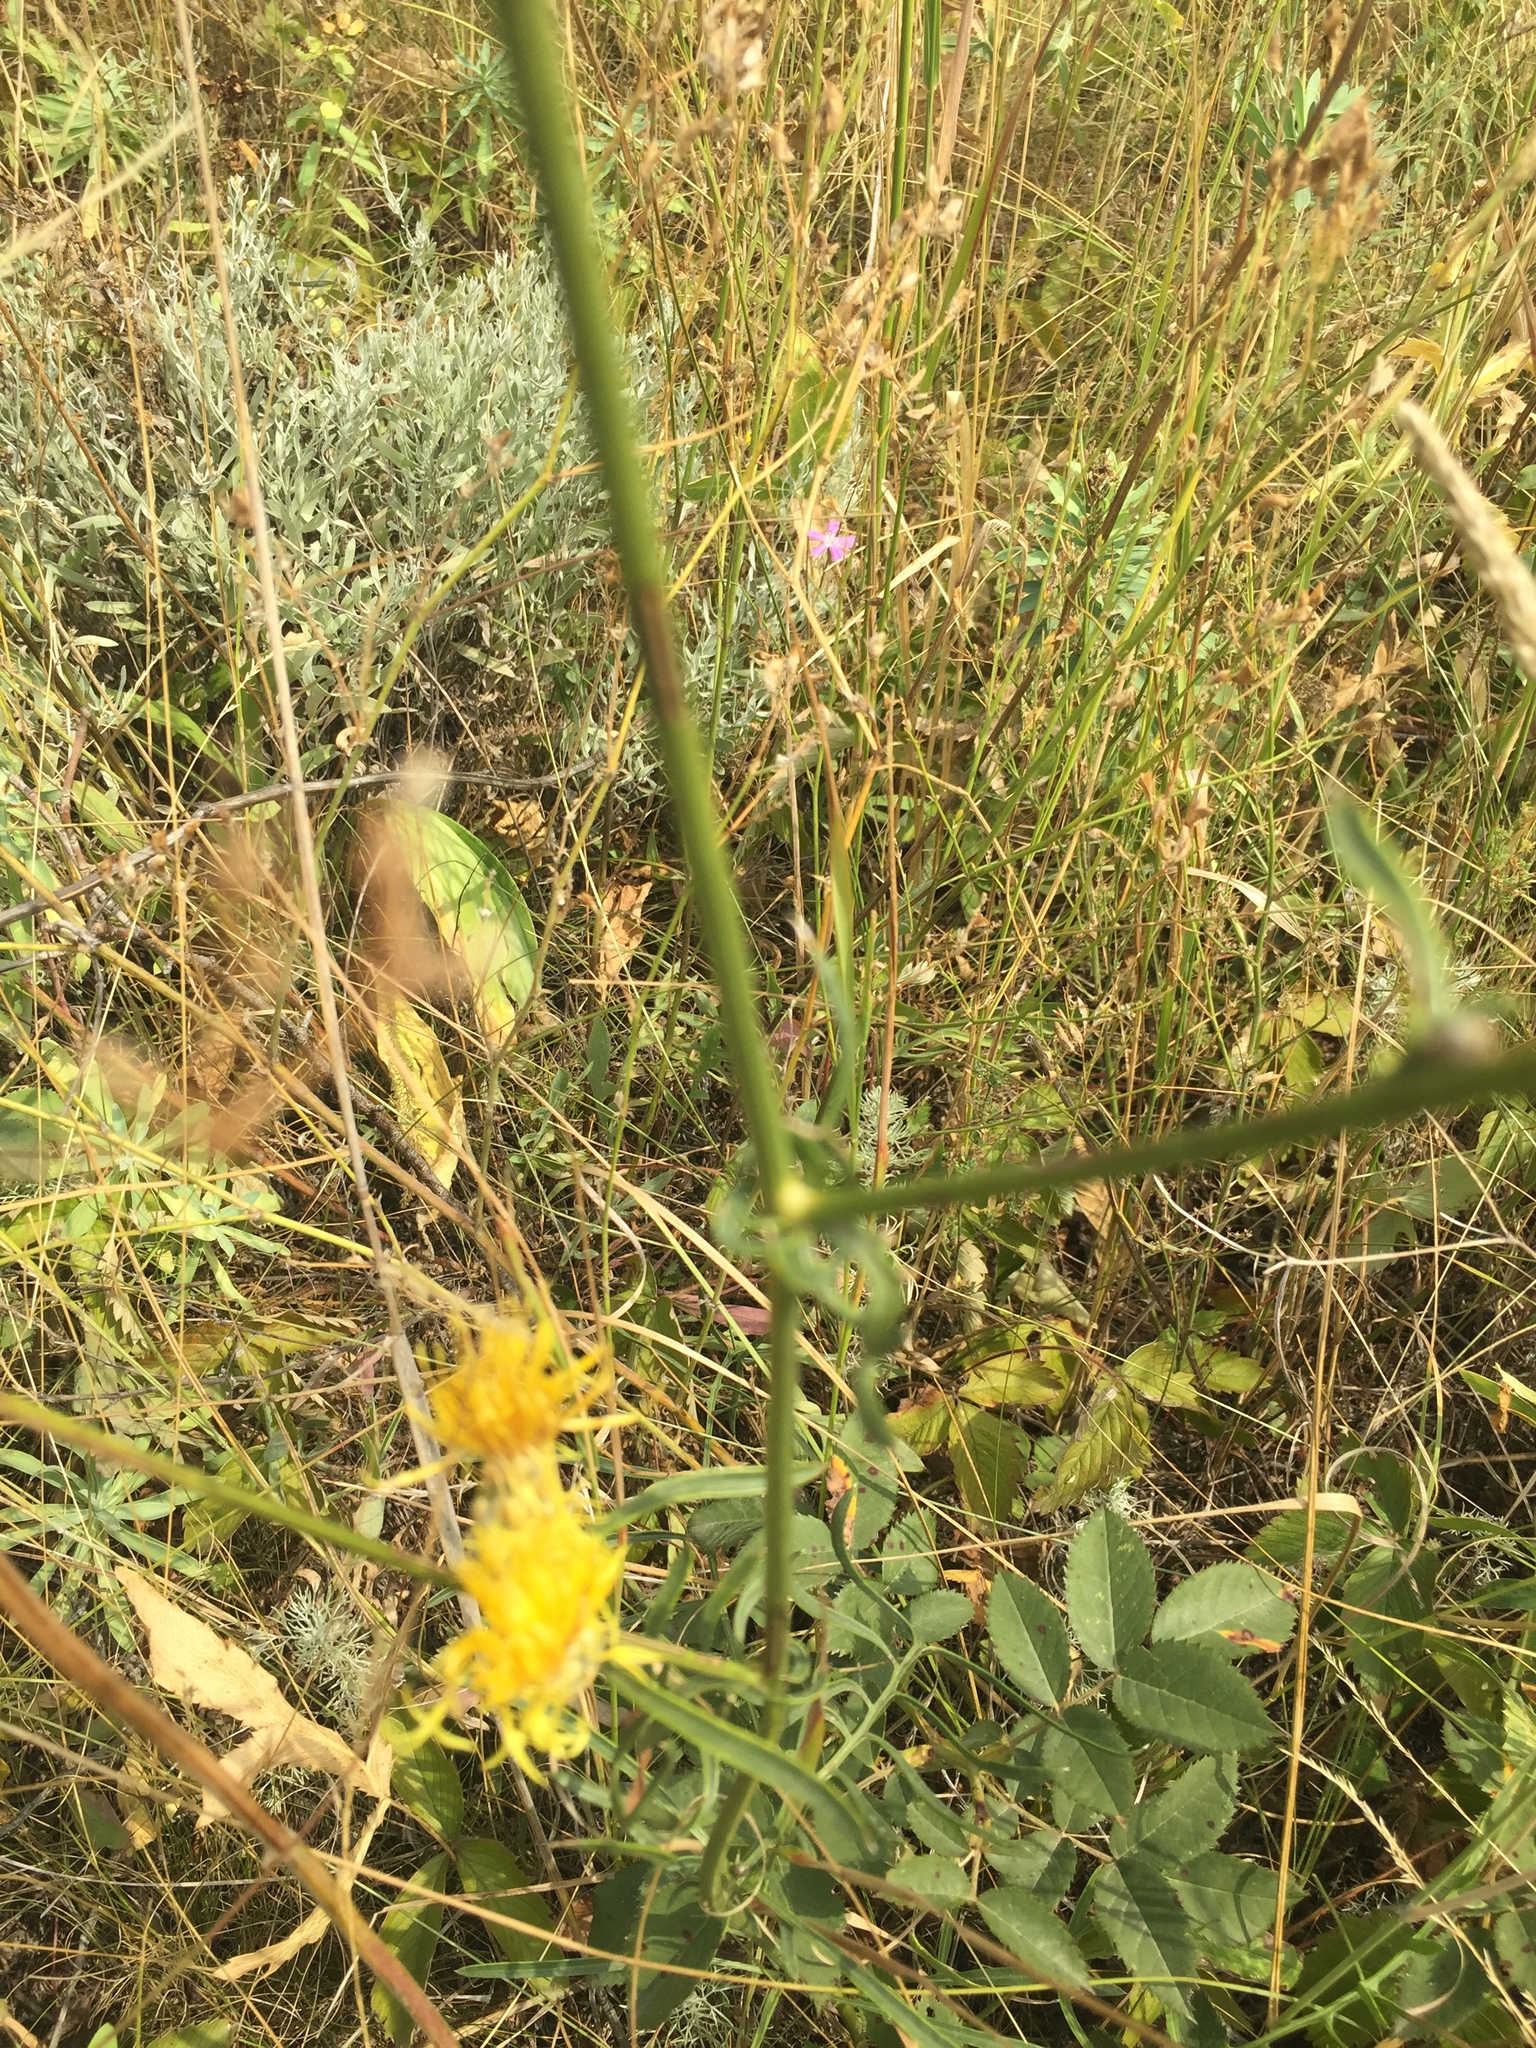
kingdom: Plantae
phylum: Tracheophyta
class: Magnoliopsida
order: Asterales
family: Asteraceae
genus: Centaurea
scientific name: Centaurea orientalis
